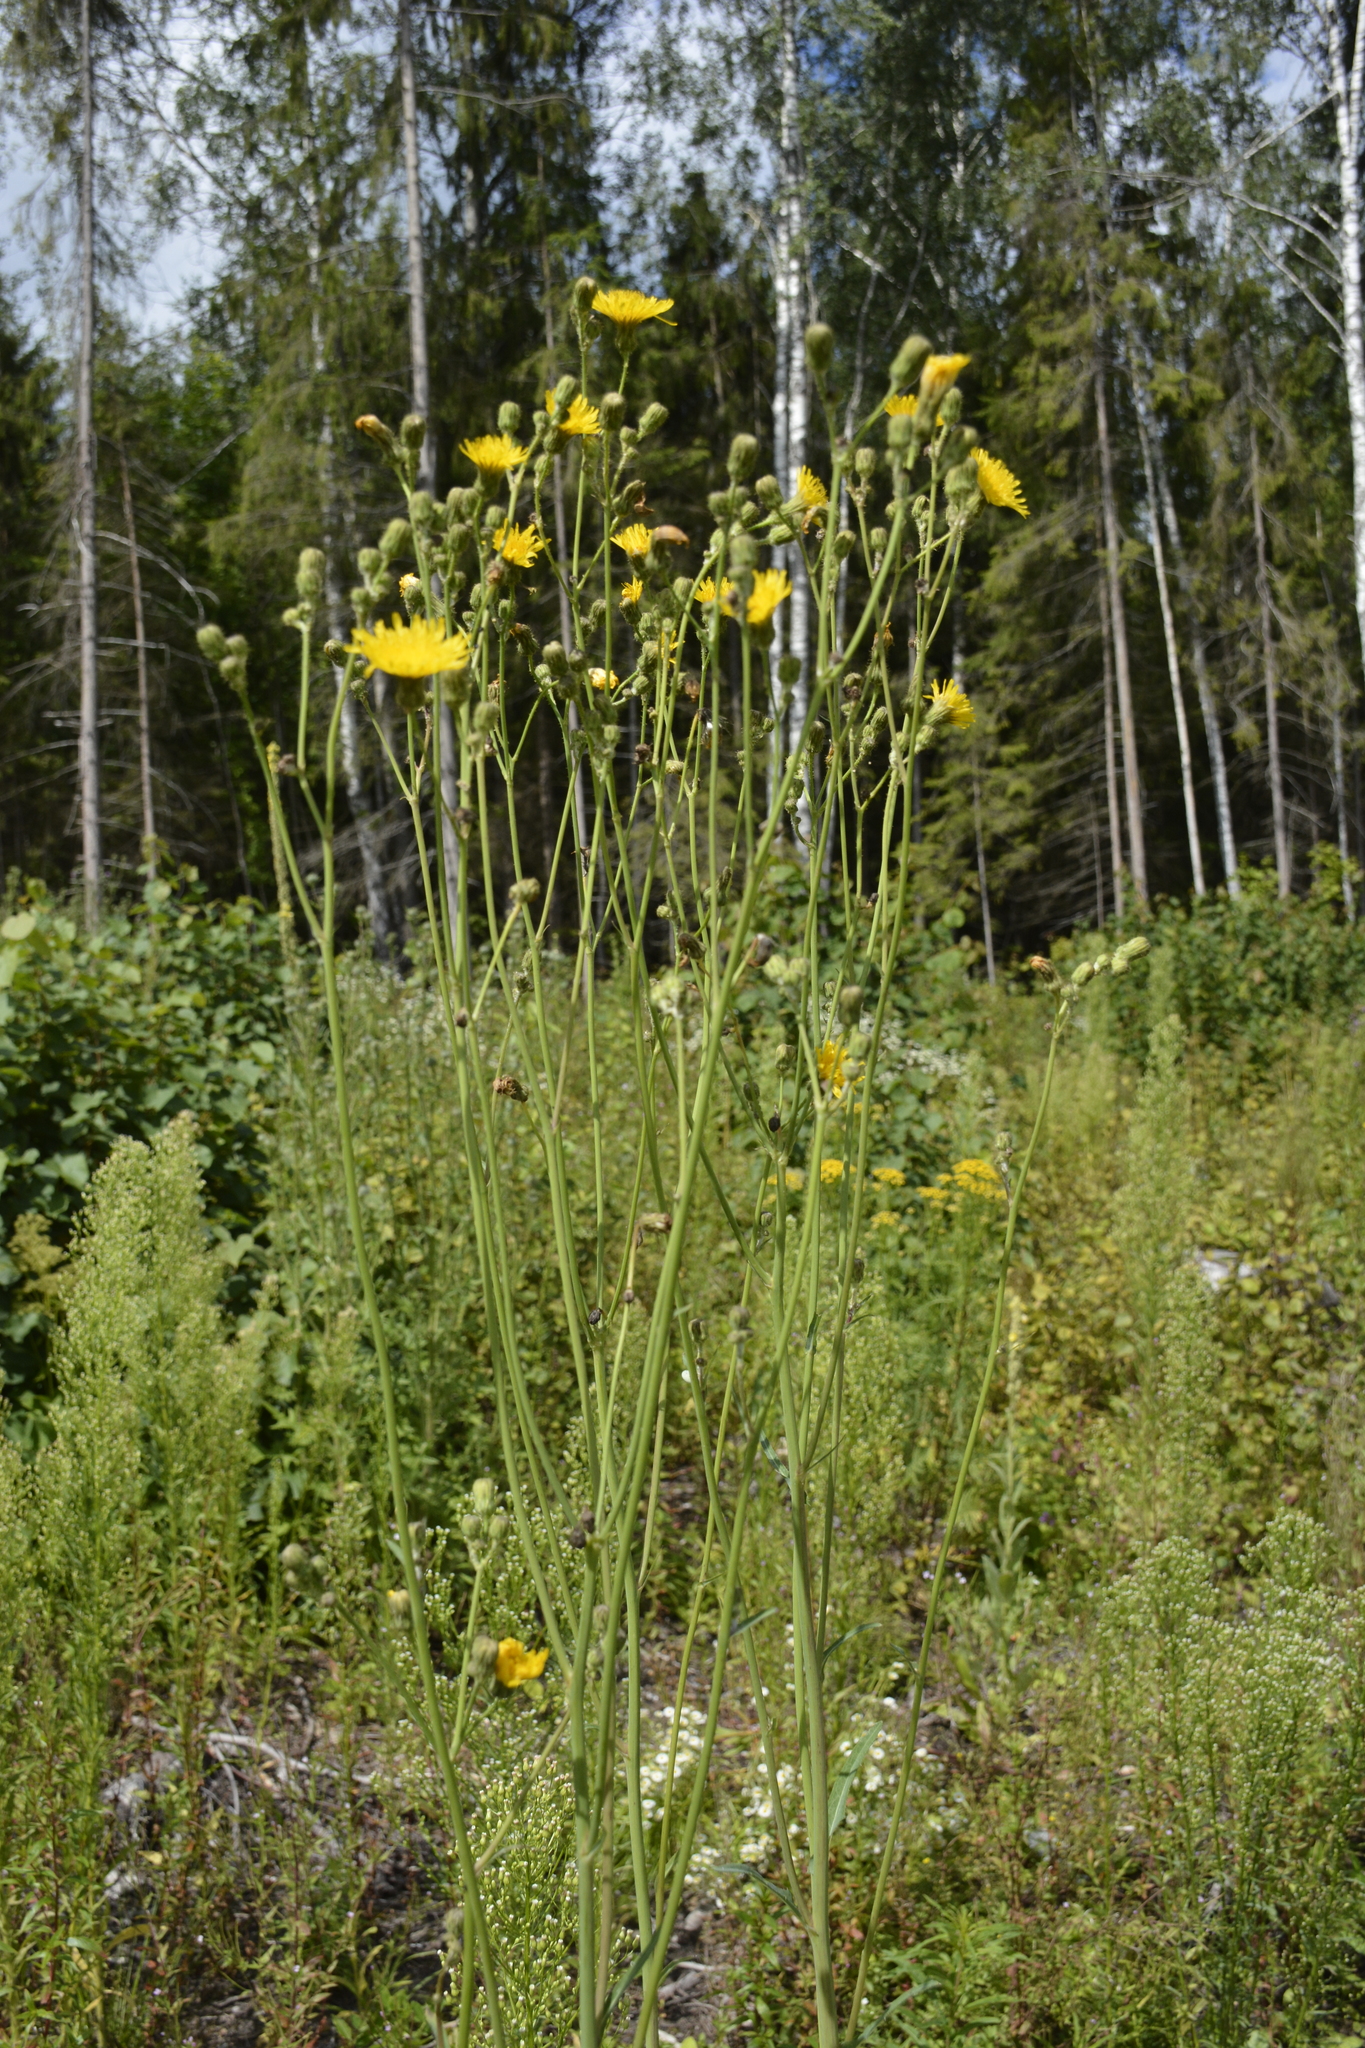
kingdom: Plantae
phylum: Tracheophyta
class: Magnoliopsida
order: Asterales
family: Asteraceae
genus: Sonchus
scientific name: Sonchus arvensis
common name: Perennial sow-thistle
